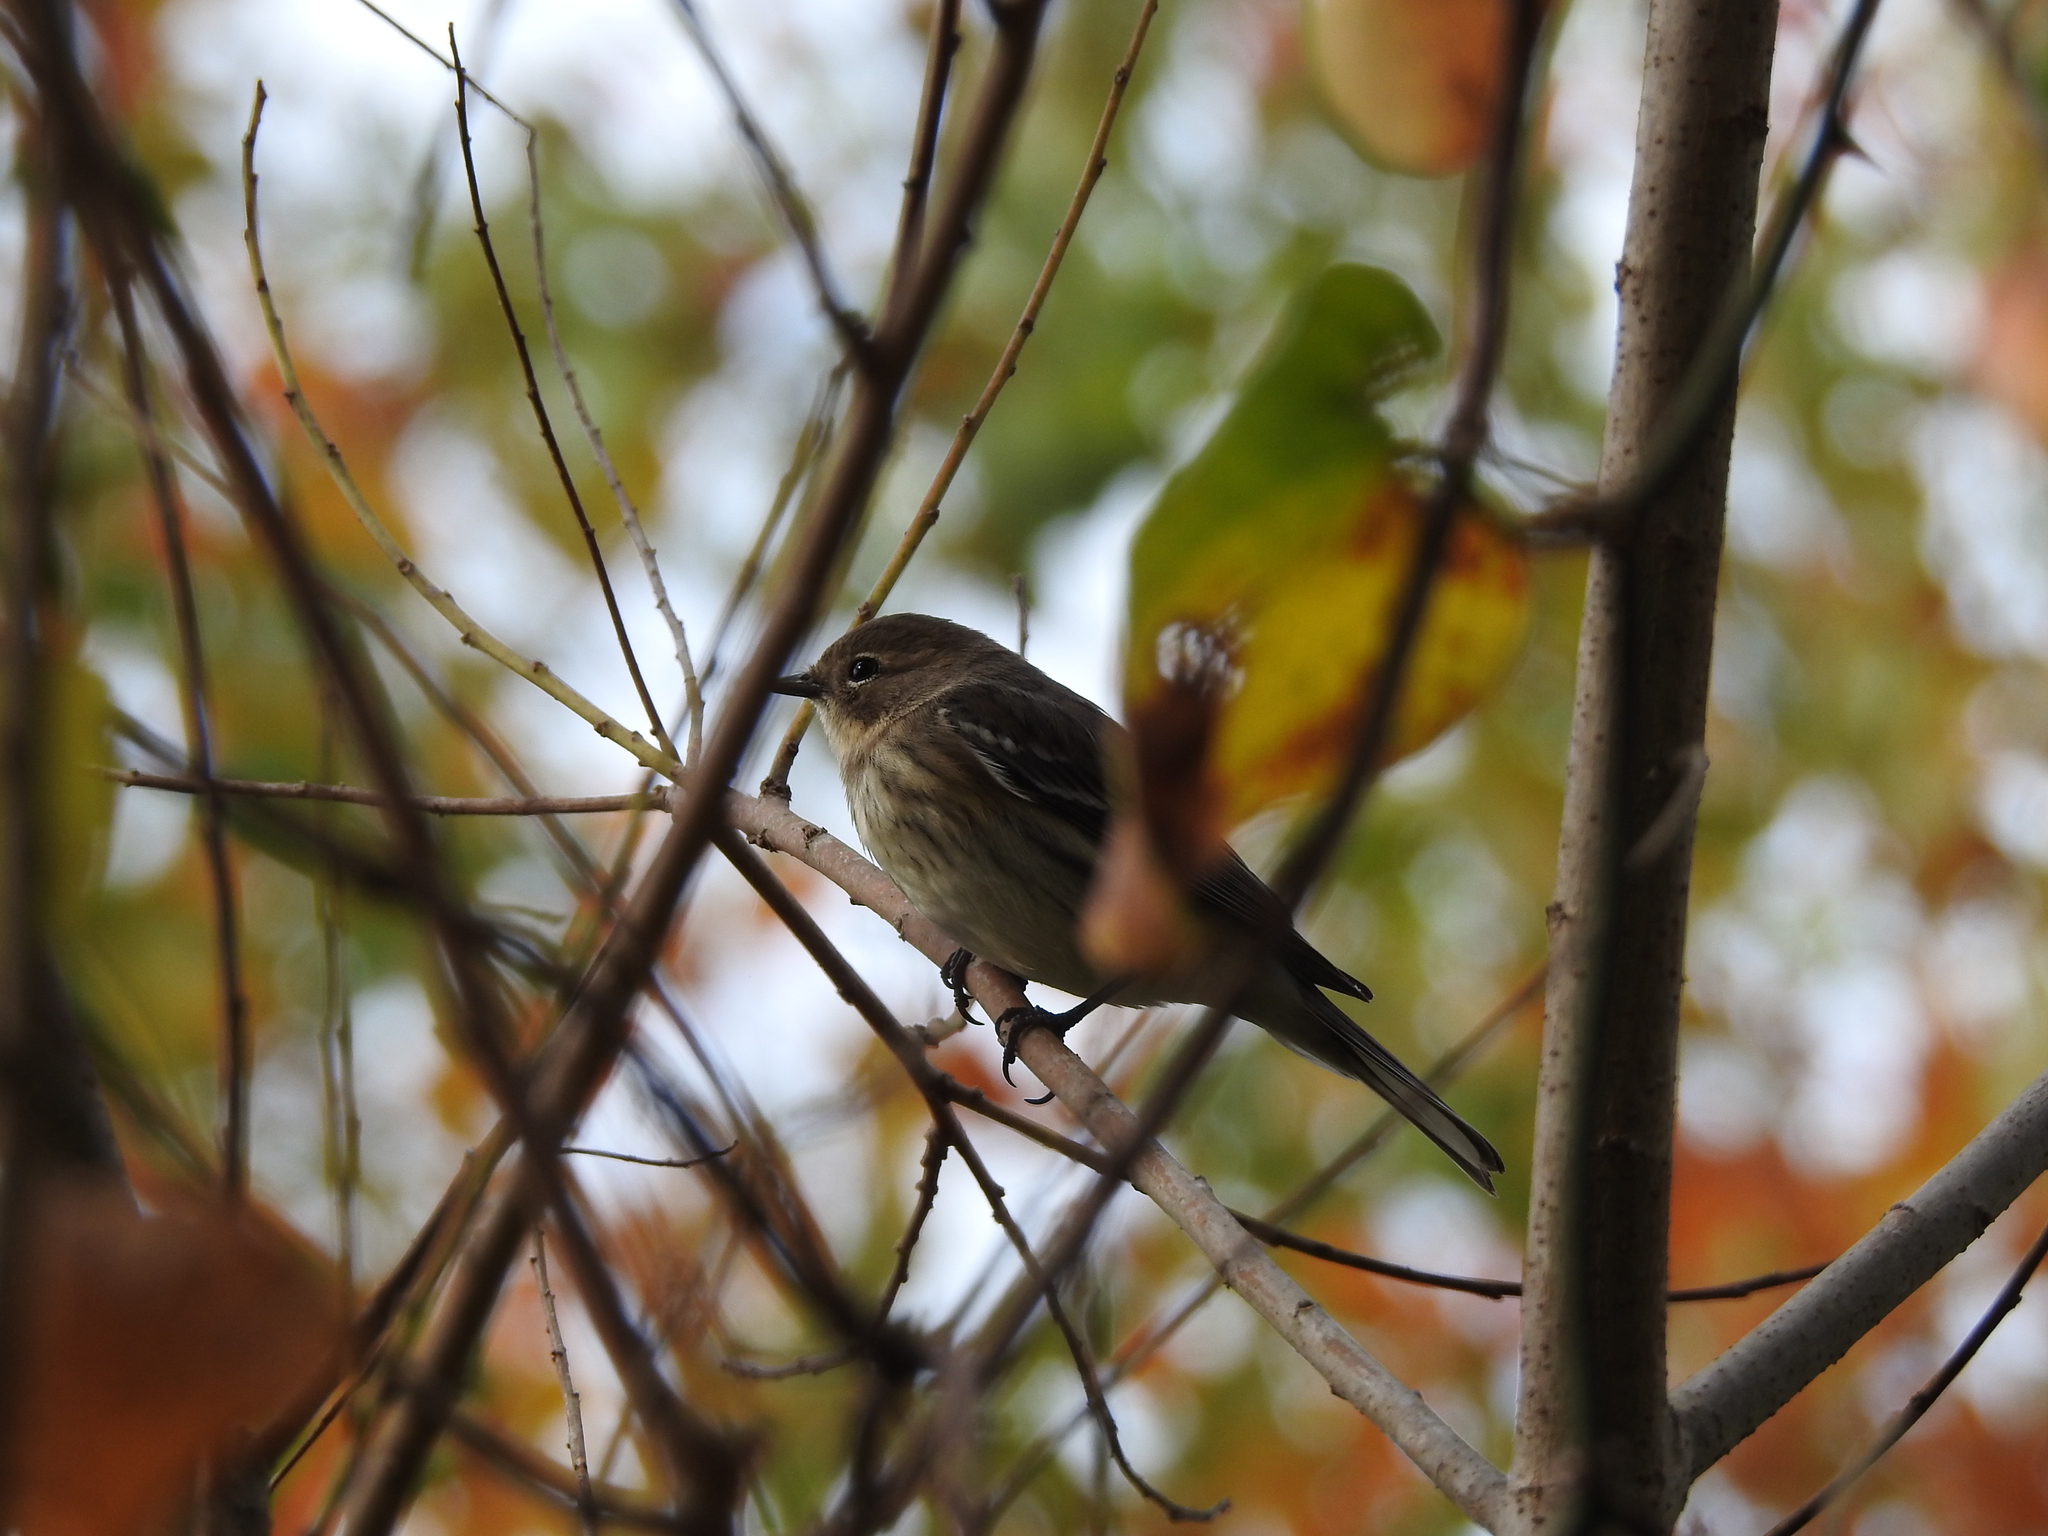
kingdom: Animalia
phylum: Chordata
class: Aves
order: Passeriformes
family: Parulidae
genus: Setophaga
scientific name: Setophaga coronata
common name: Myrtle warbler
